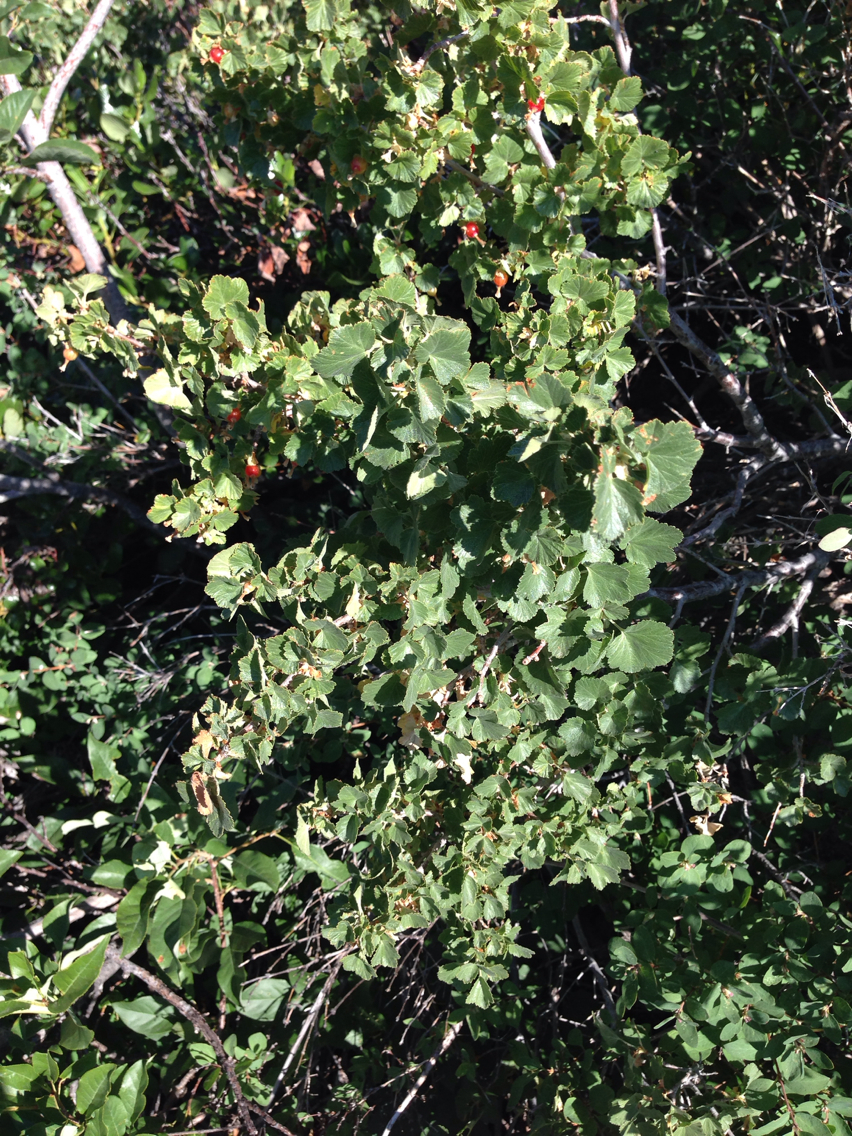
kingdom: Plantae
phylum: Tracheophyta
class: Magnoliopsida
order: Saxifragales
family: Grossulariaceae
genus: Ribes
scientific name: Ribes cereum
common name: Wax currant
